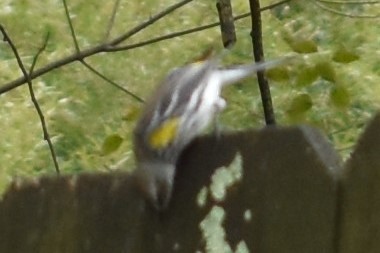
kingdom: Animalia
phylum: Chordata
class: Aves
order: Passeriformes
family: Parulidae
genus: Setophaga
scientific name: Setophaga coronata
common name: Myrtle warbler
